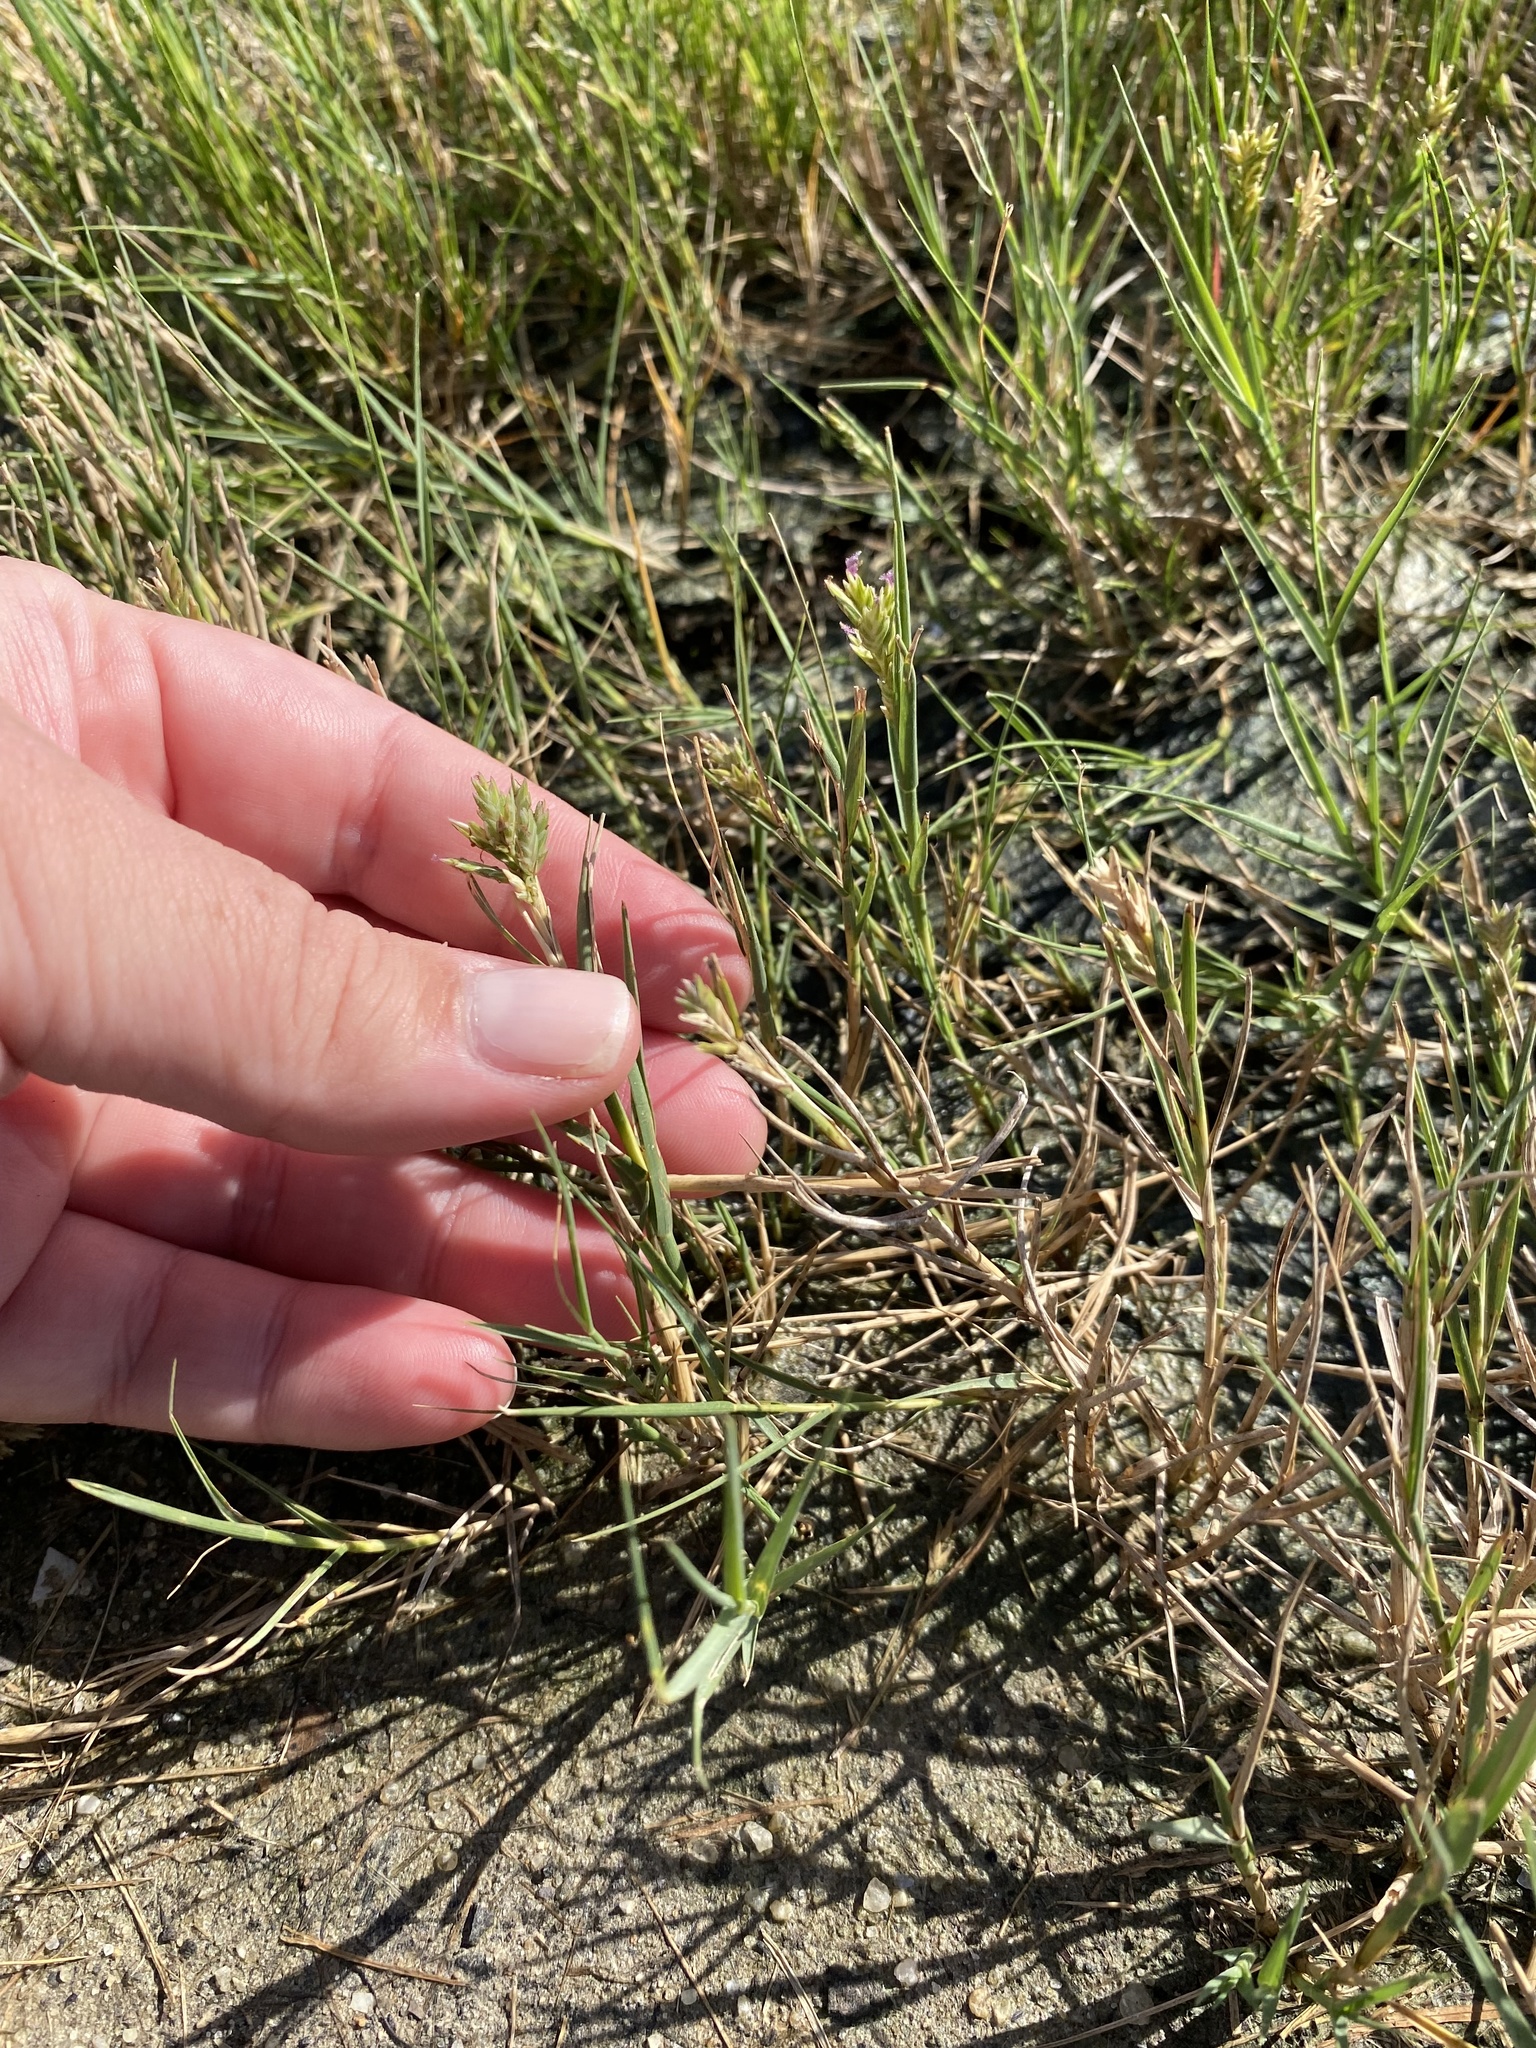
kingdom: Plantae
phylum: Tracheophyta
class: Liliopsida
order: Poales
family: Poaceae
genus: Distichlis
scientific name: Distichlis spicata
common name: Saltgrass
